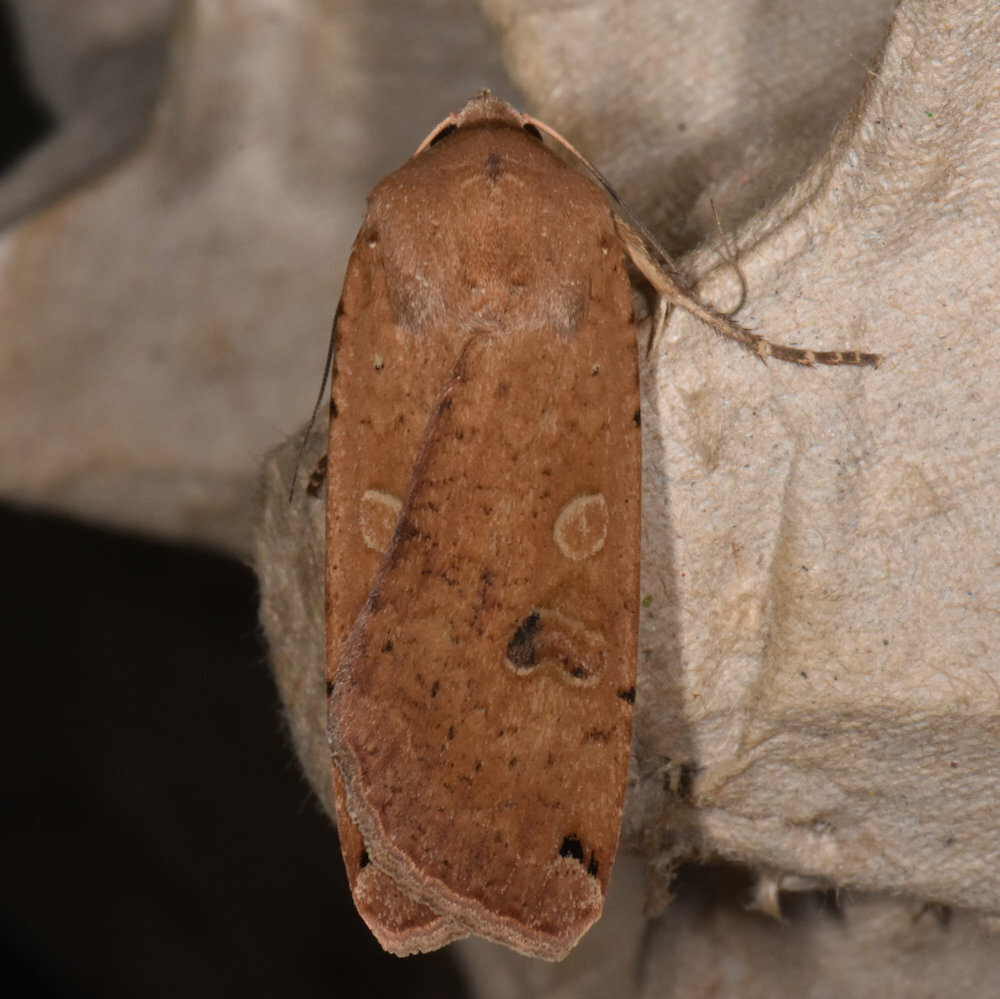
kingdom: Animalia
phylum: Arthropoda
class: Insecta
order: Lepidoptera
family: Noctuidae
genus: Noctua
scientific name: Noctua pronuba
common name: Large yellow underwing
